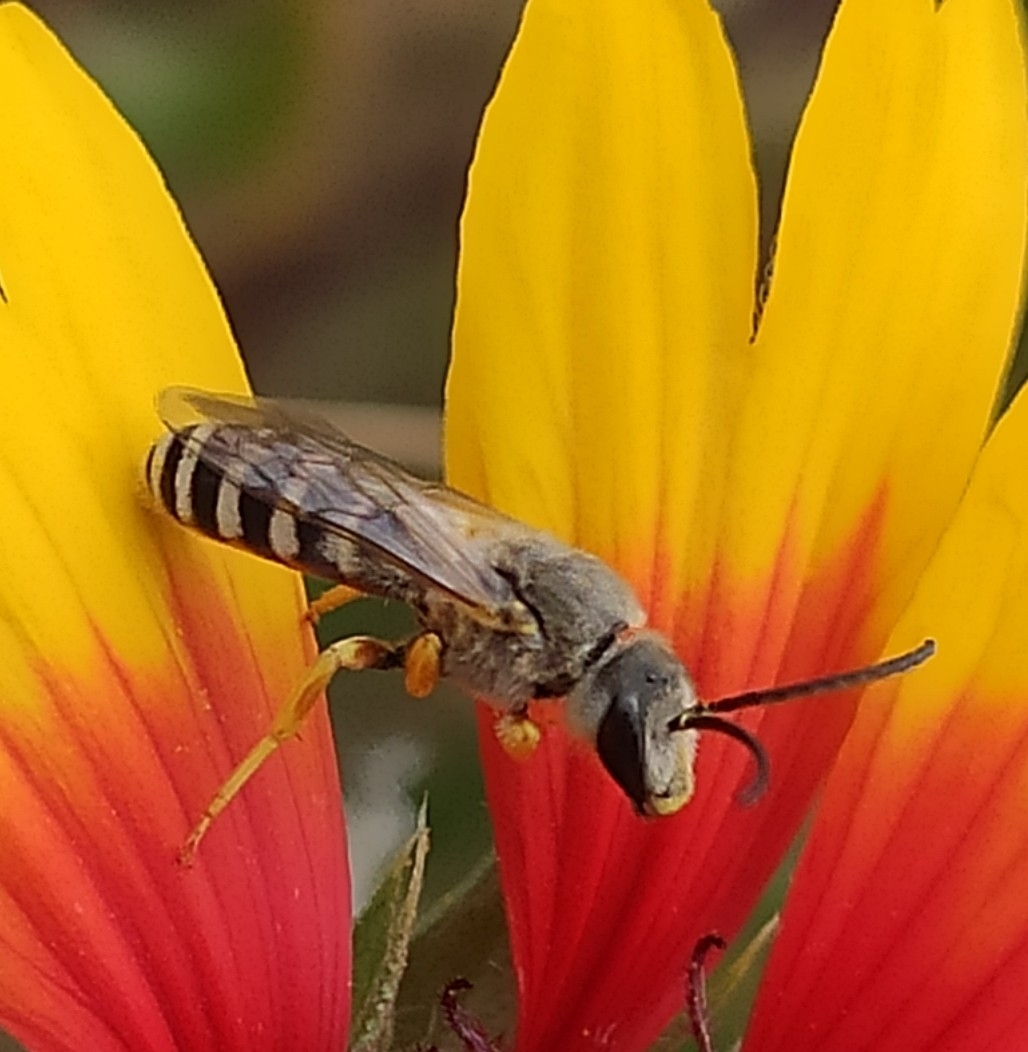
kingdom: Animalia
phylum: Arthropoda
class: Insecta
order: Hymenoptera
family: Halictidae
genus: Halictus
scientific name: Halictus resurgens
